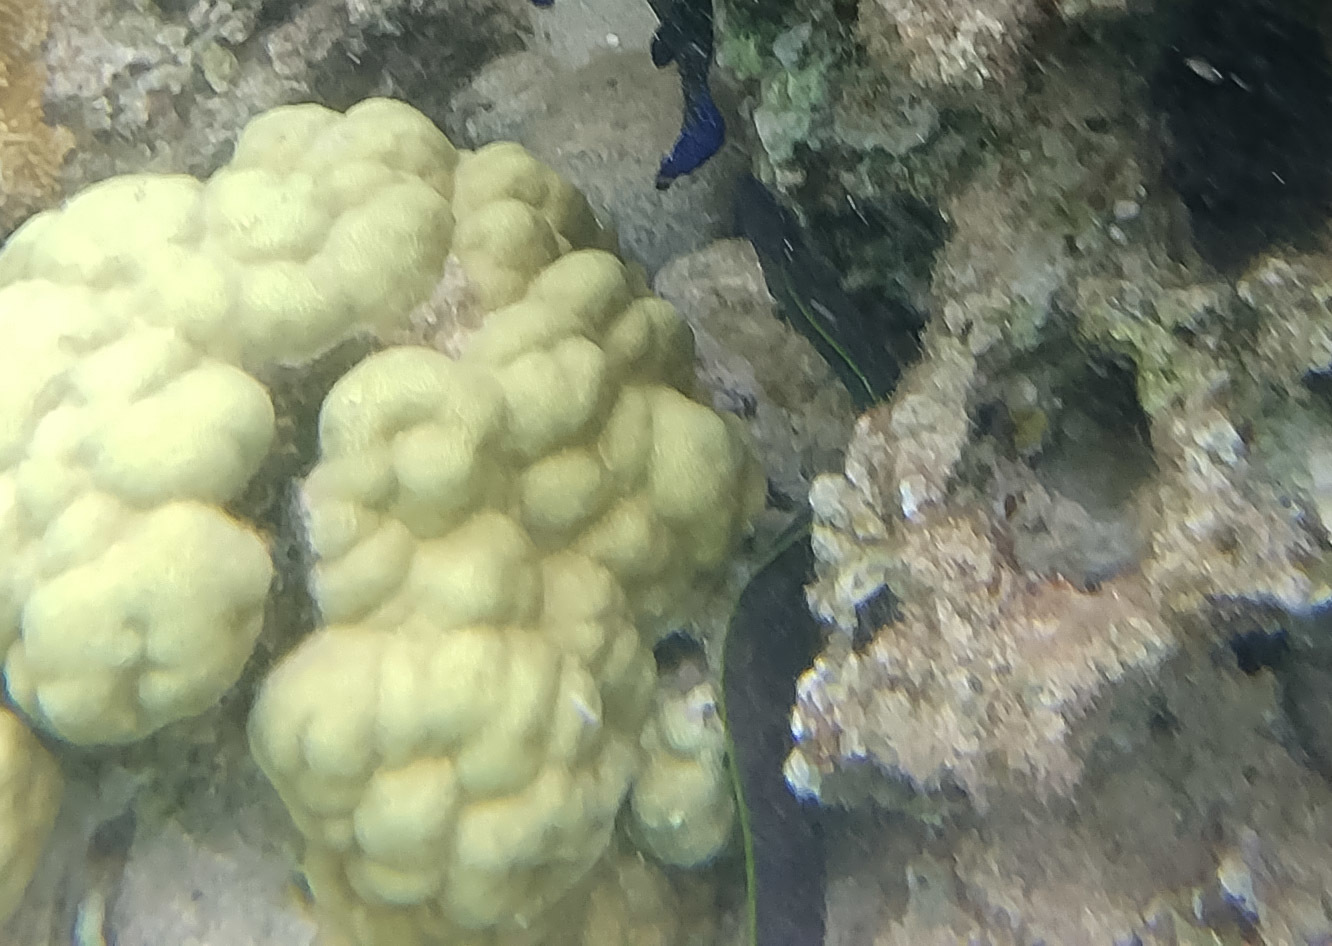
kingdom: Animalia
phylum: Chordata
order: Anguilliformes
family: Muraenidae
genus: Gymnothorax
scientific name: Gymnothorax flavimarginatus
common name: Yellow-edged moray
